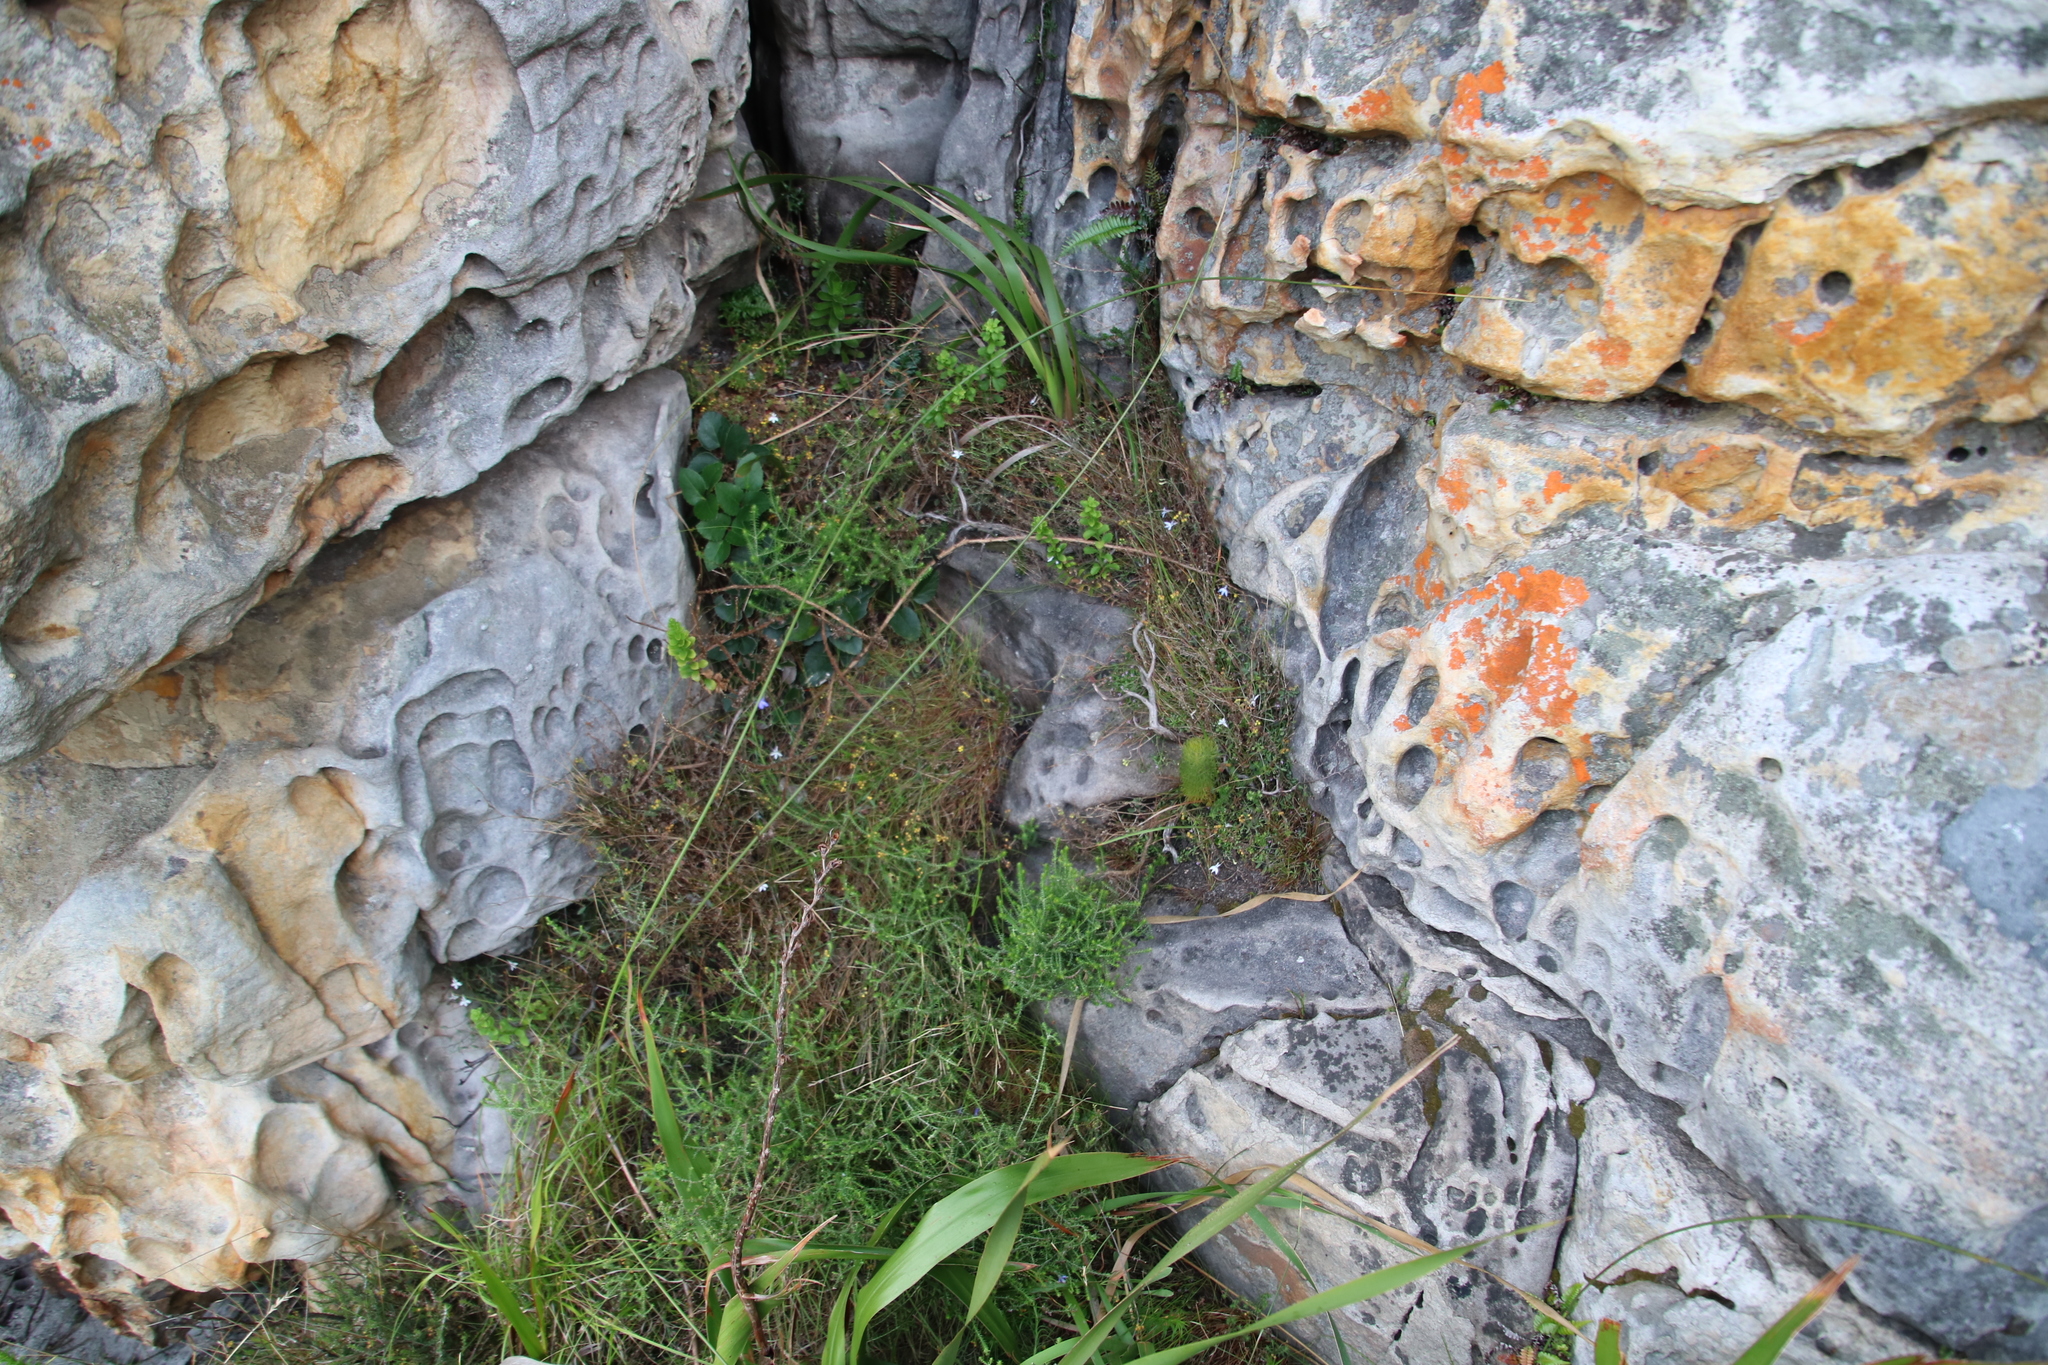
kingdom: Plantae
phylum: Tracheophyta
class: Magnoliopsida
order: Asterales
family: Asteraceae
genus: Hippia
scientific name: Hippia pilosa
